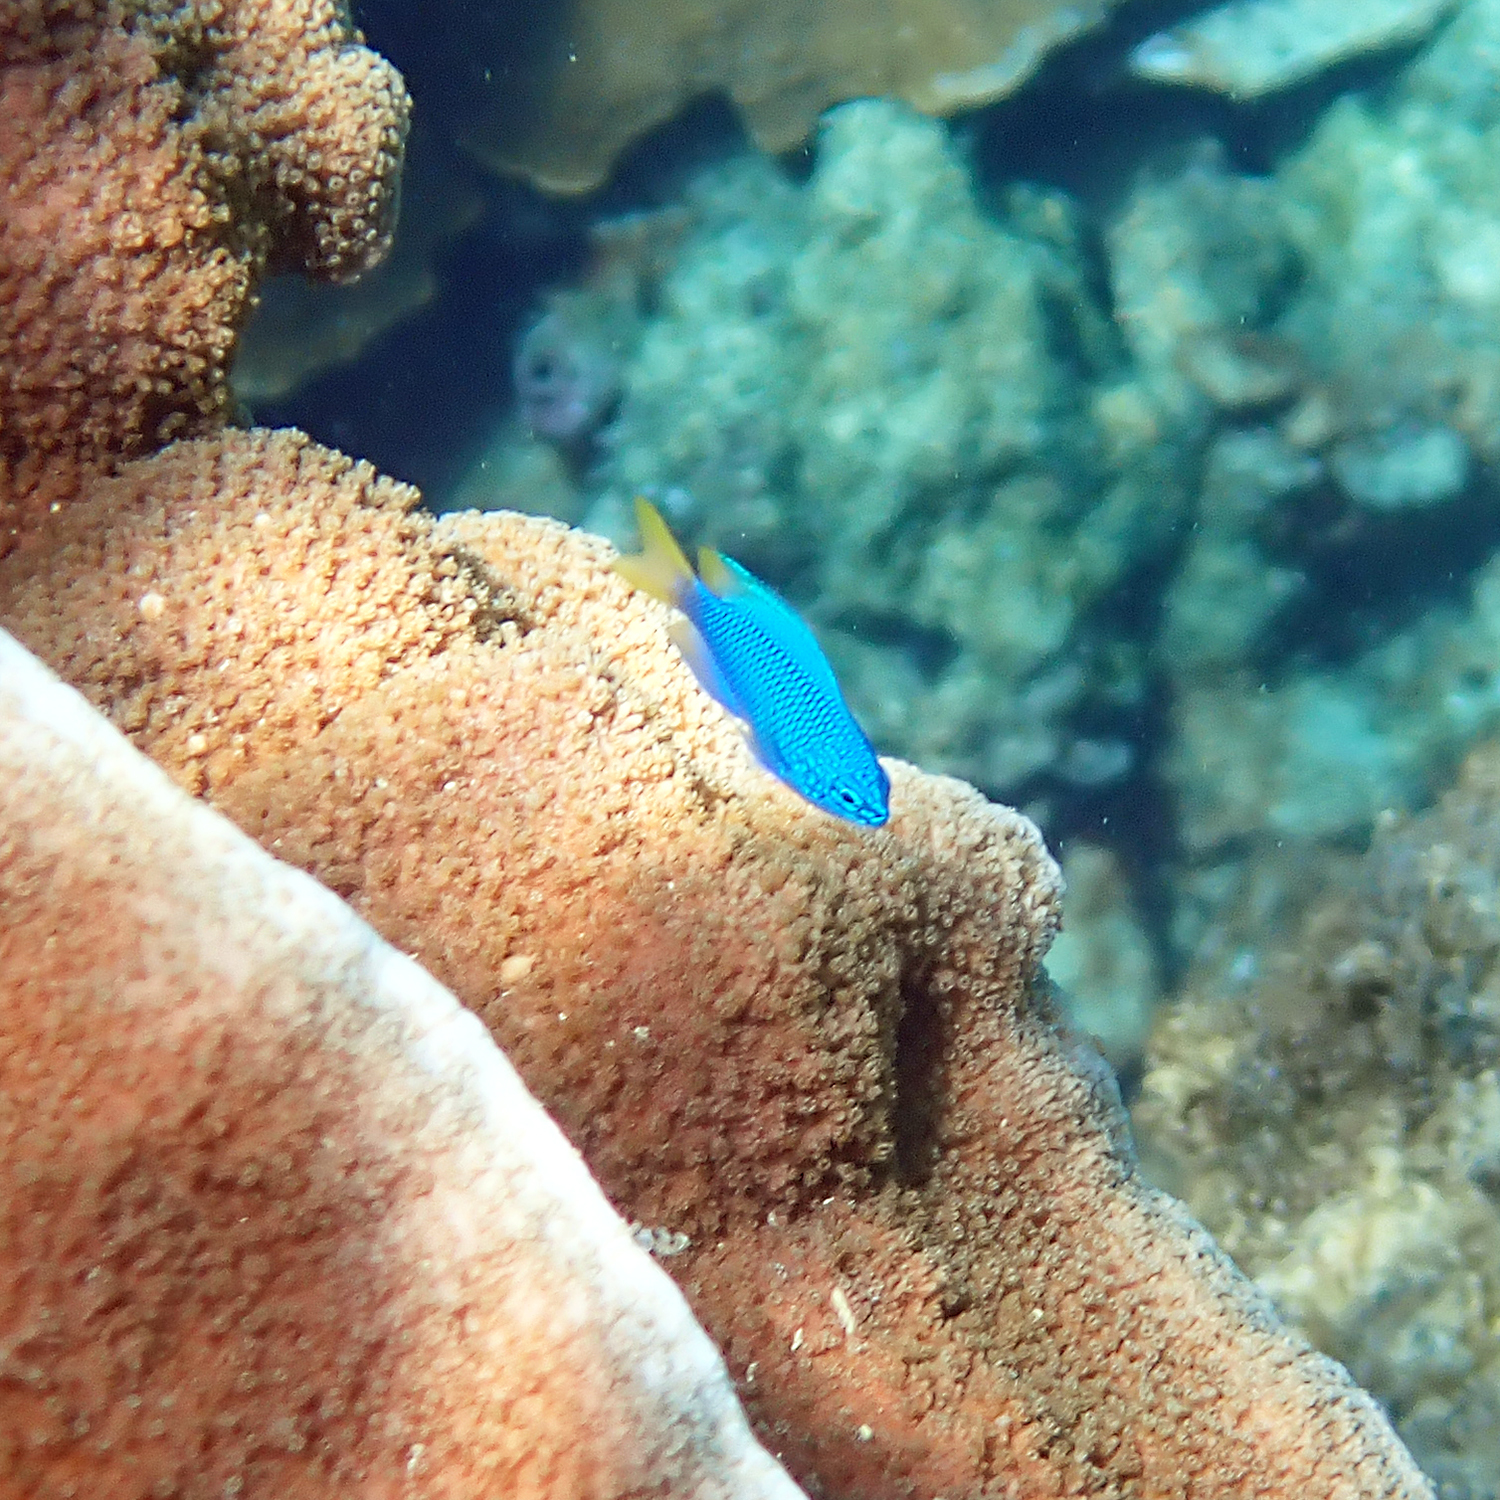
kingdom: Animalia
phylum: Chordata
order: Perciformes
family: Pomacentridae
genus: Pomacentrus
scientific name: Pomacentrus pavo
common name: Sapphire damsel
